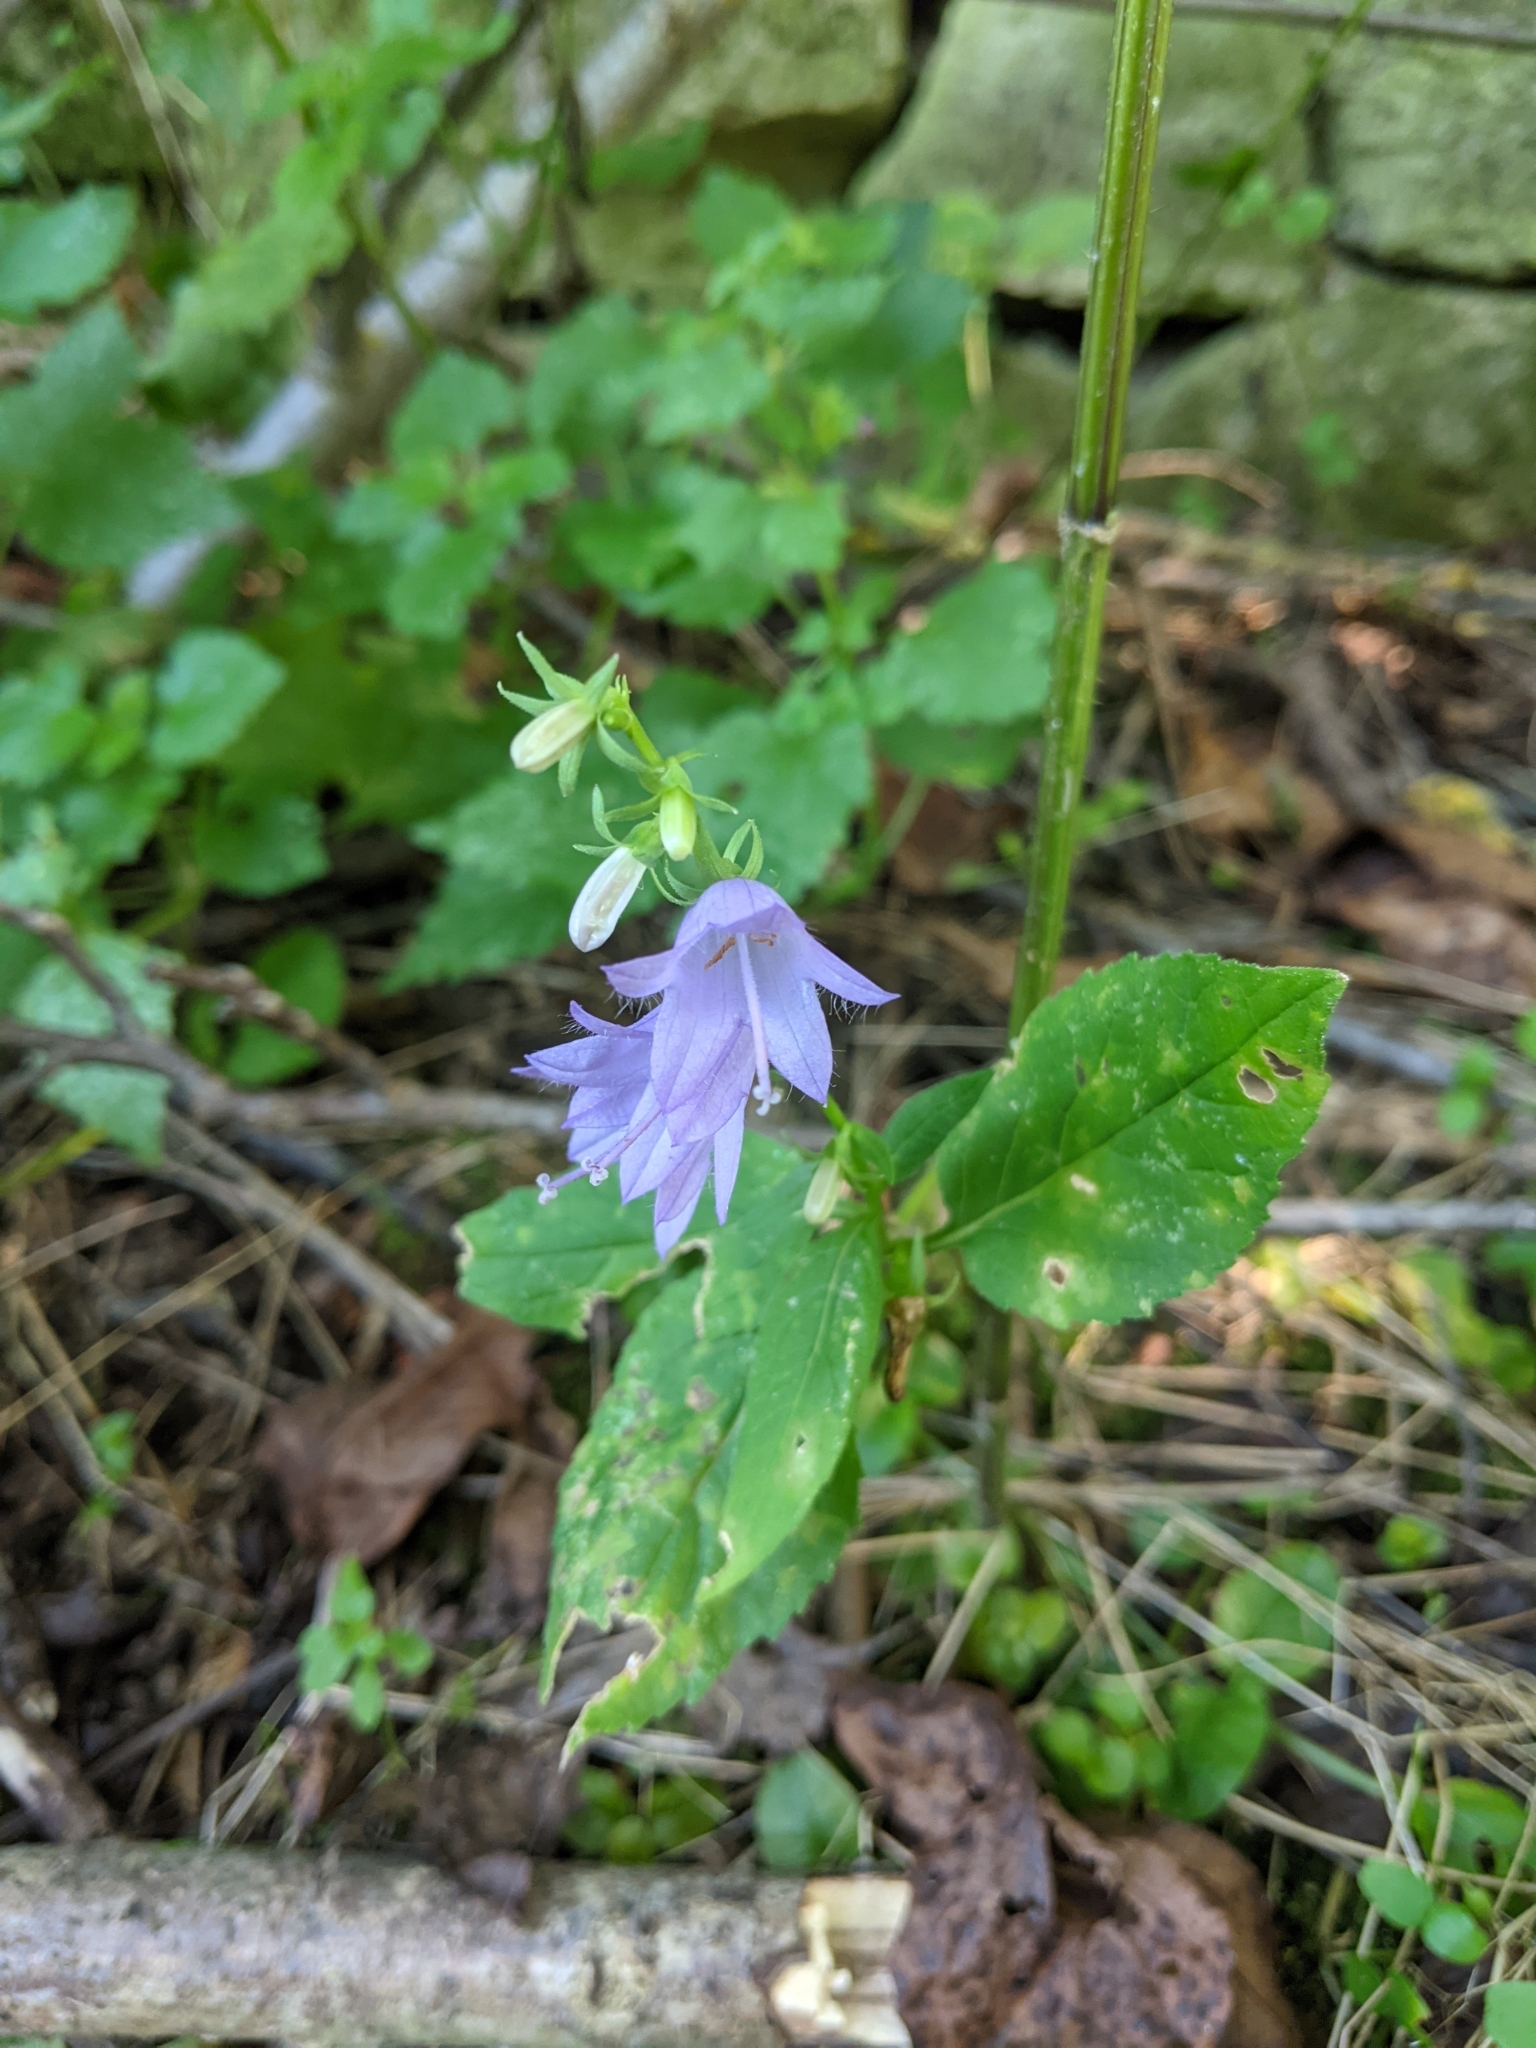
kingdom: Plantae
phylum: Tracheophyta
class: Magnoliopsida
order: Asterales
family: Campanulaceae
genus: Campanula
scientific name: Campanula trachelium
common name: Nettle-leaved bellflower
